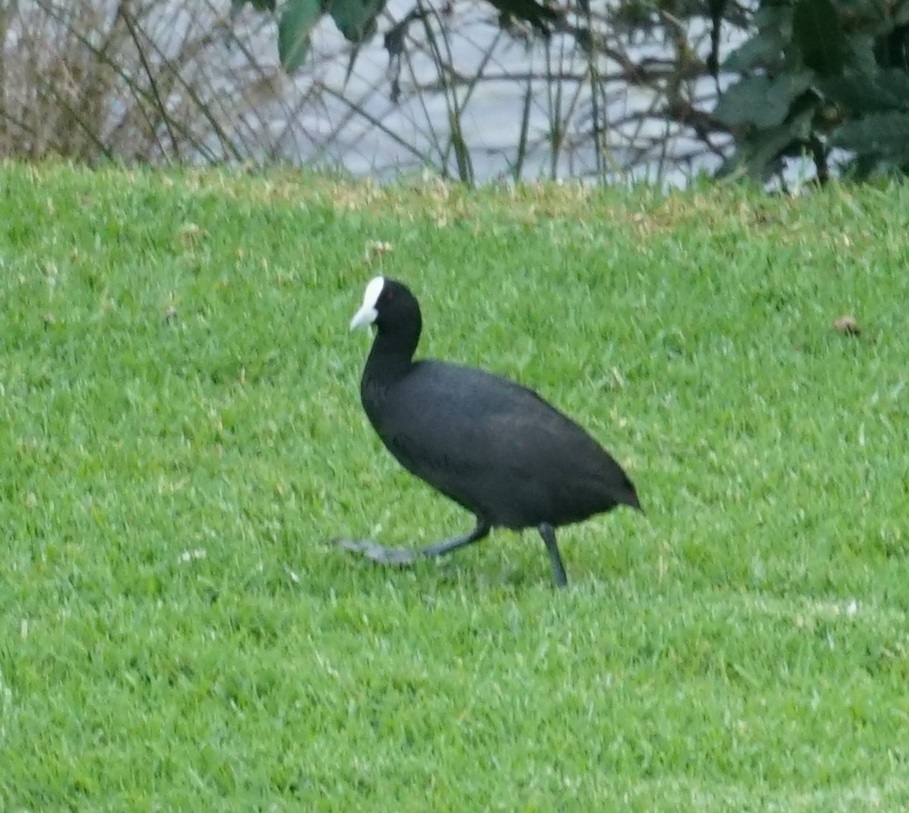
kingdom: Animalia
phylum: Chordata
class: Aves
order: Gruiformes
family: Rallidae
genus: Fulica
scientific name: Fulica atra
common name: Eurasian coot
